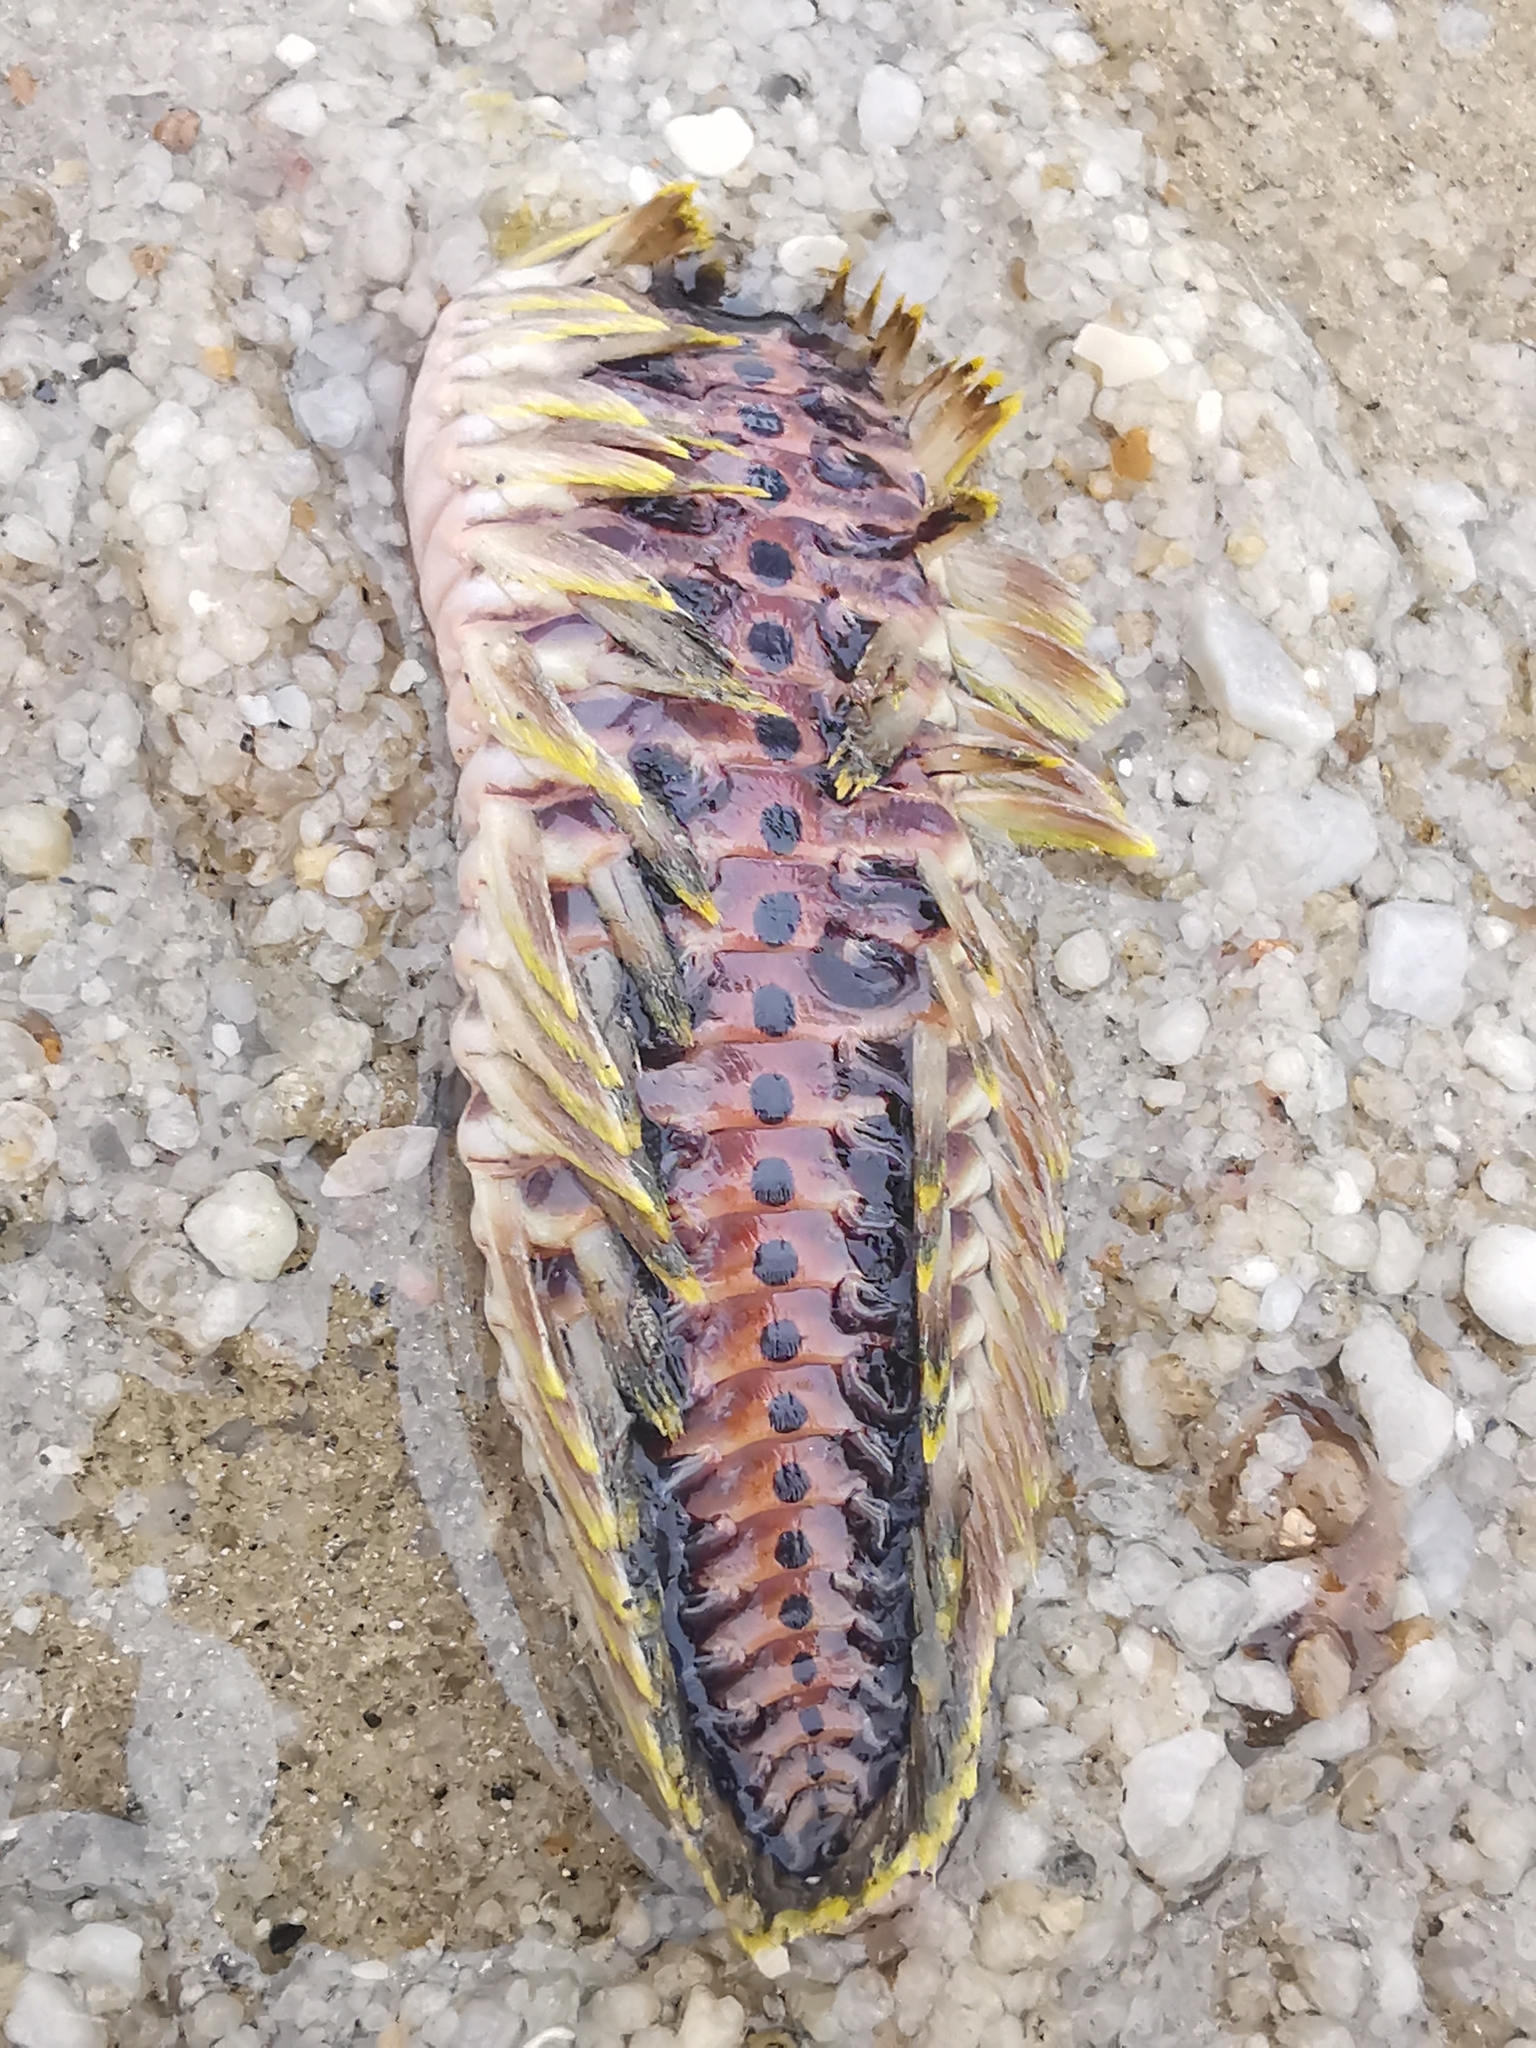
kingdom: Animalia
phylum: Annelida
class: Polychaeta
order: Amphinomida
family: Amphinomidae
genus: Chloeia
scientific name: Chloeia flava
